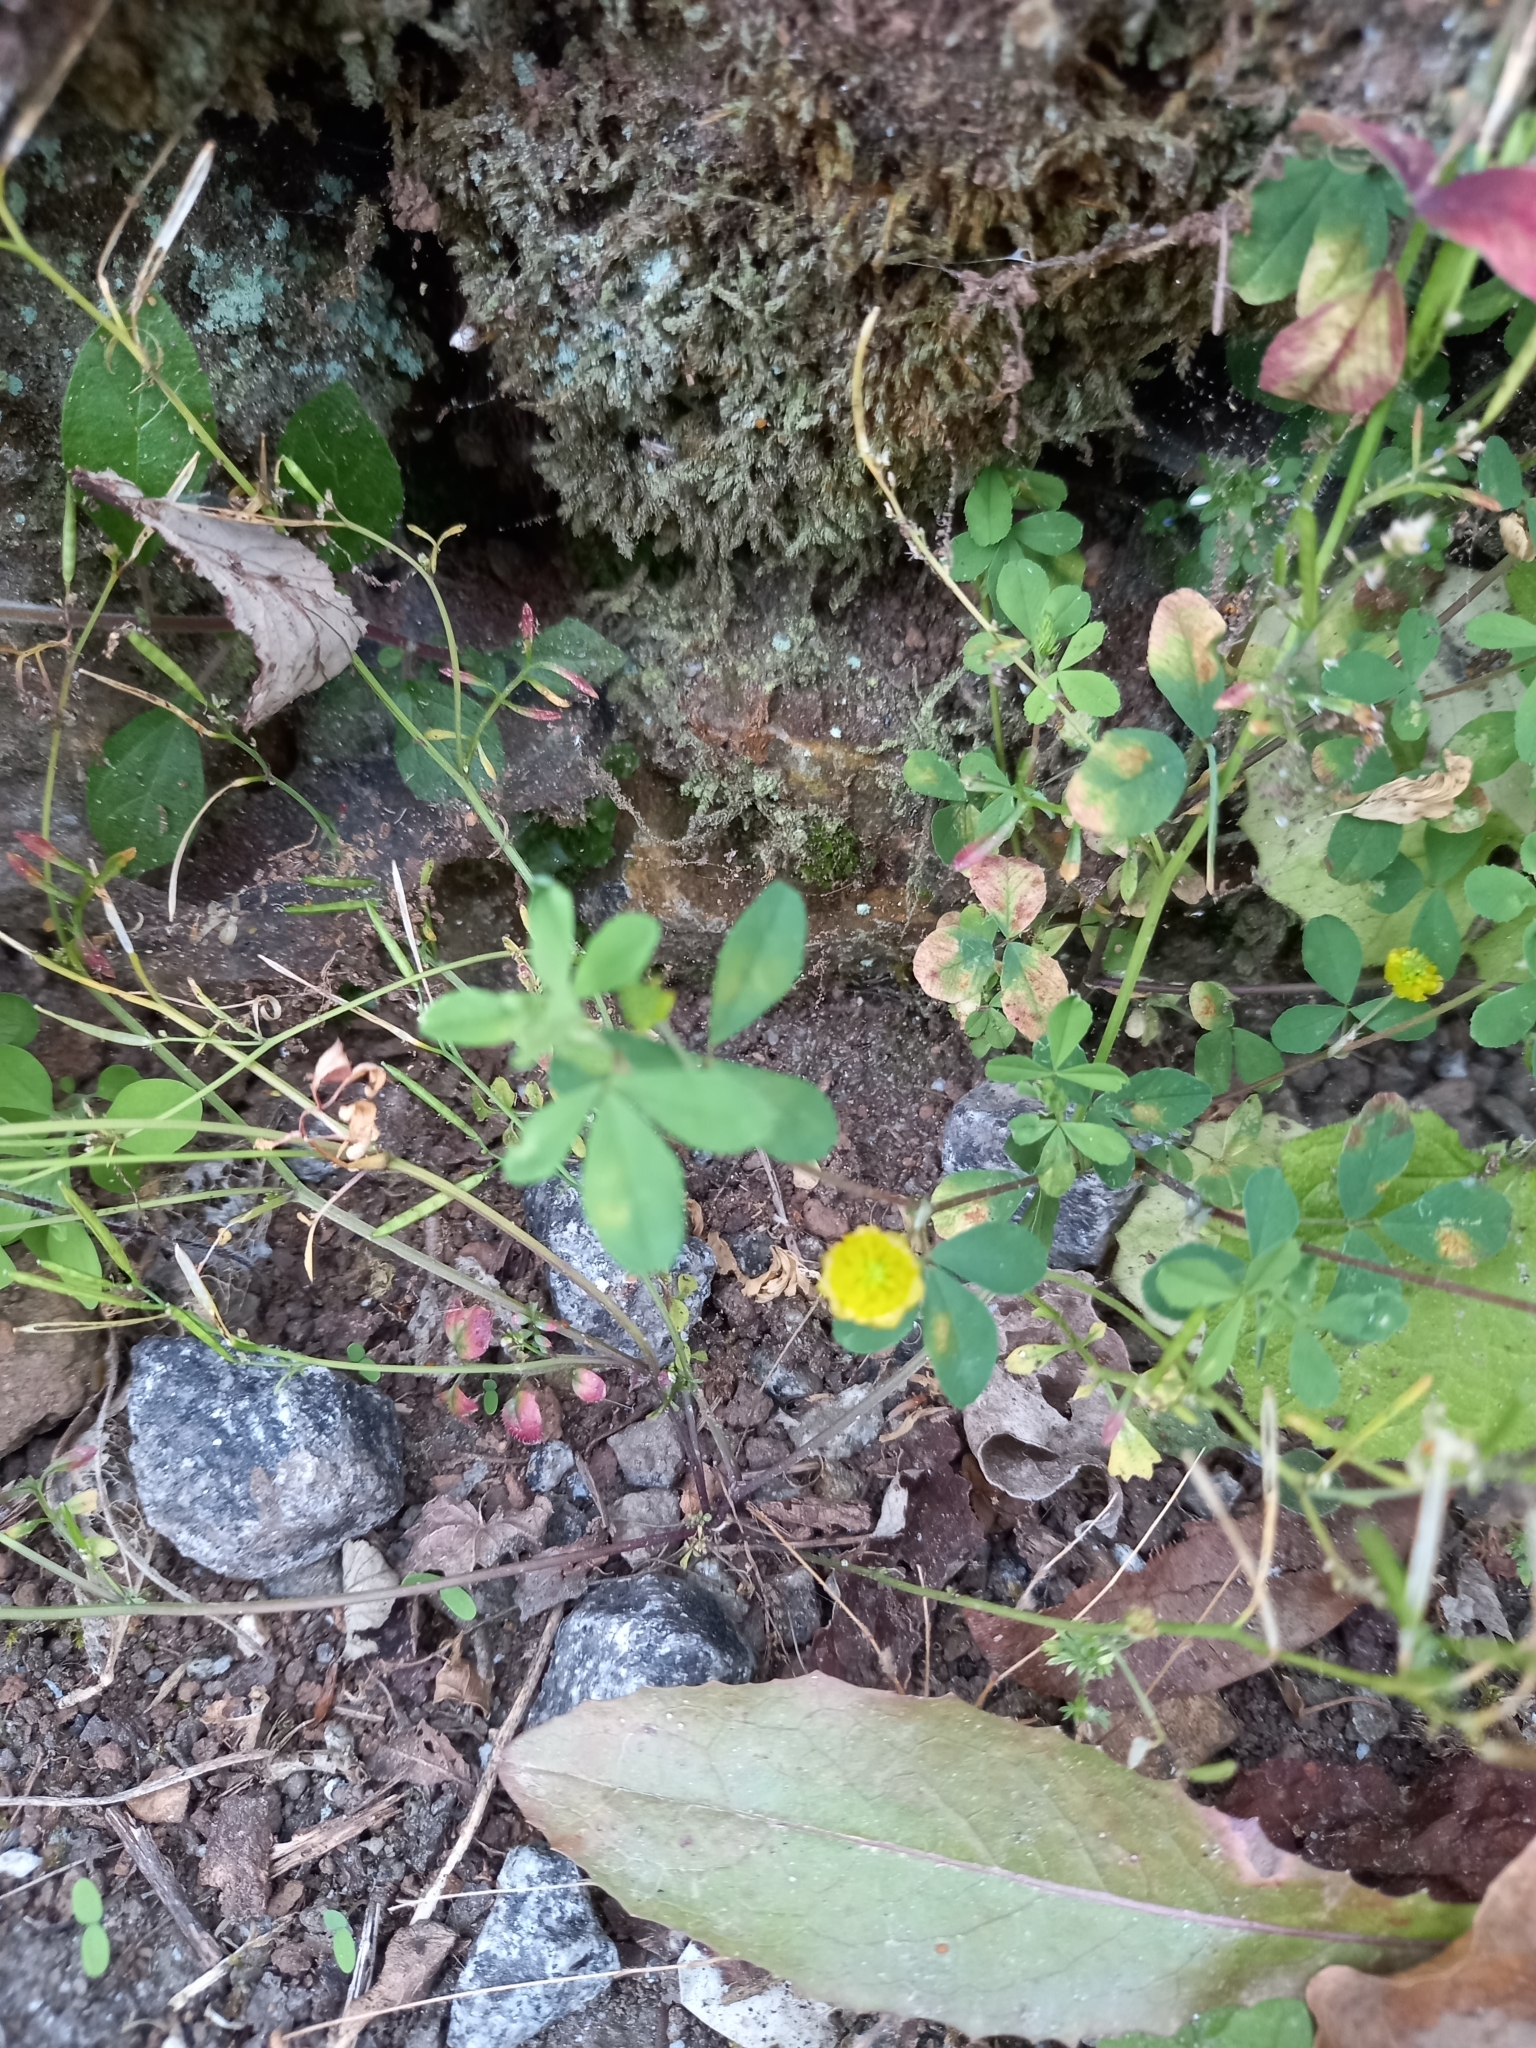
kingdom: Plantae
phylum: Tracheophyta
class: Magnoliopsida
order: Fabales
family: Fabaceae
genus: Trifolium
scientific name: Trifolium campestre
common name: Field clover
